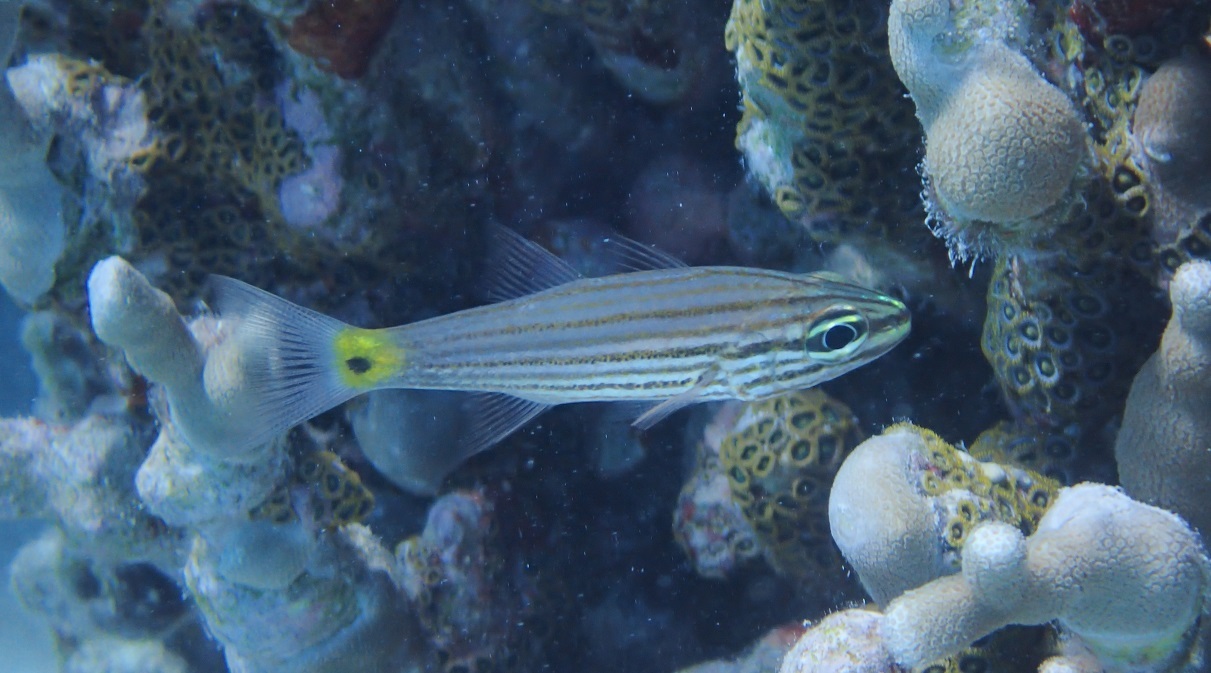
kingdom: Animalia
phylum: Chordata
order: Perciformes
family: Apogonidae
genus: Cheilodipterus
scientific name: Cheilodipterus artus
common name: Wolf cardinal
